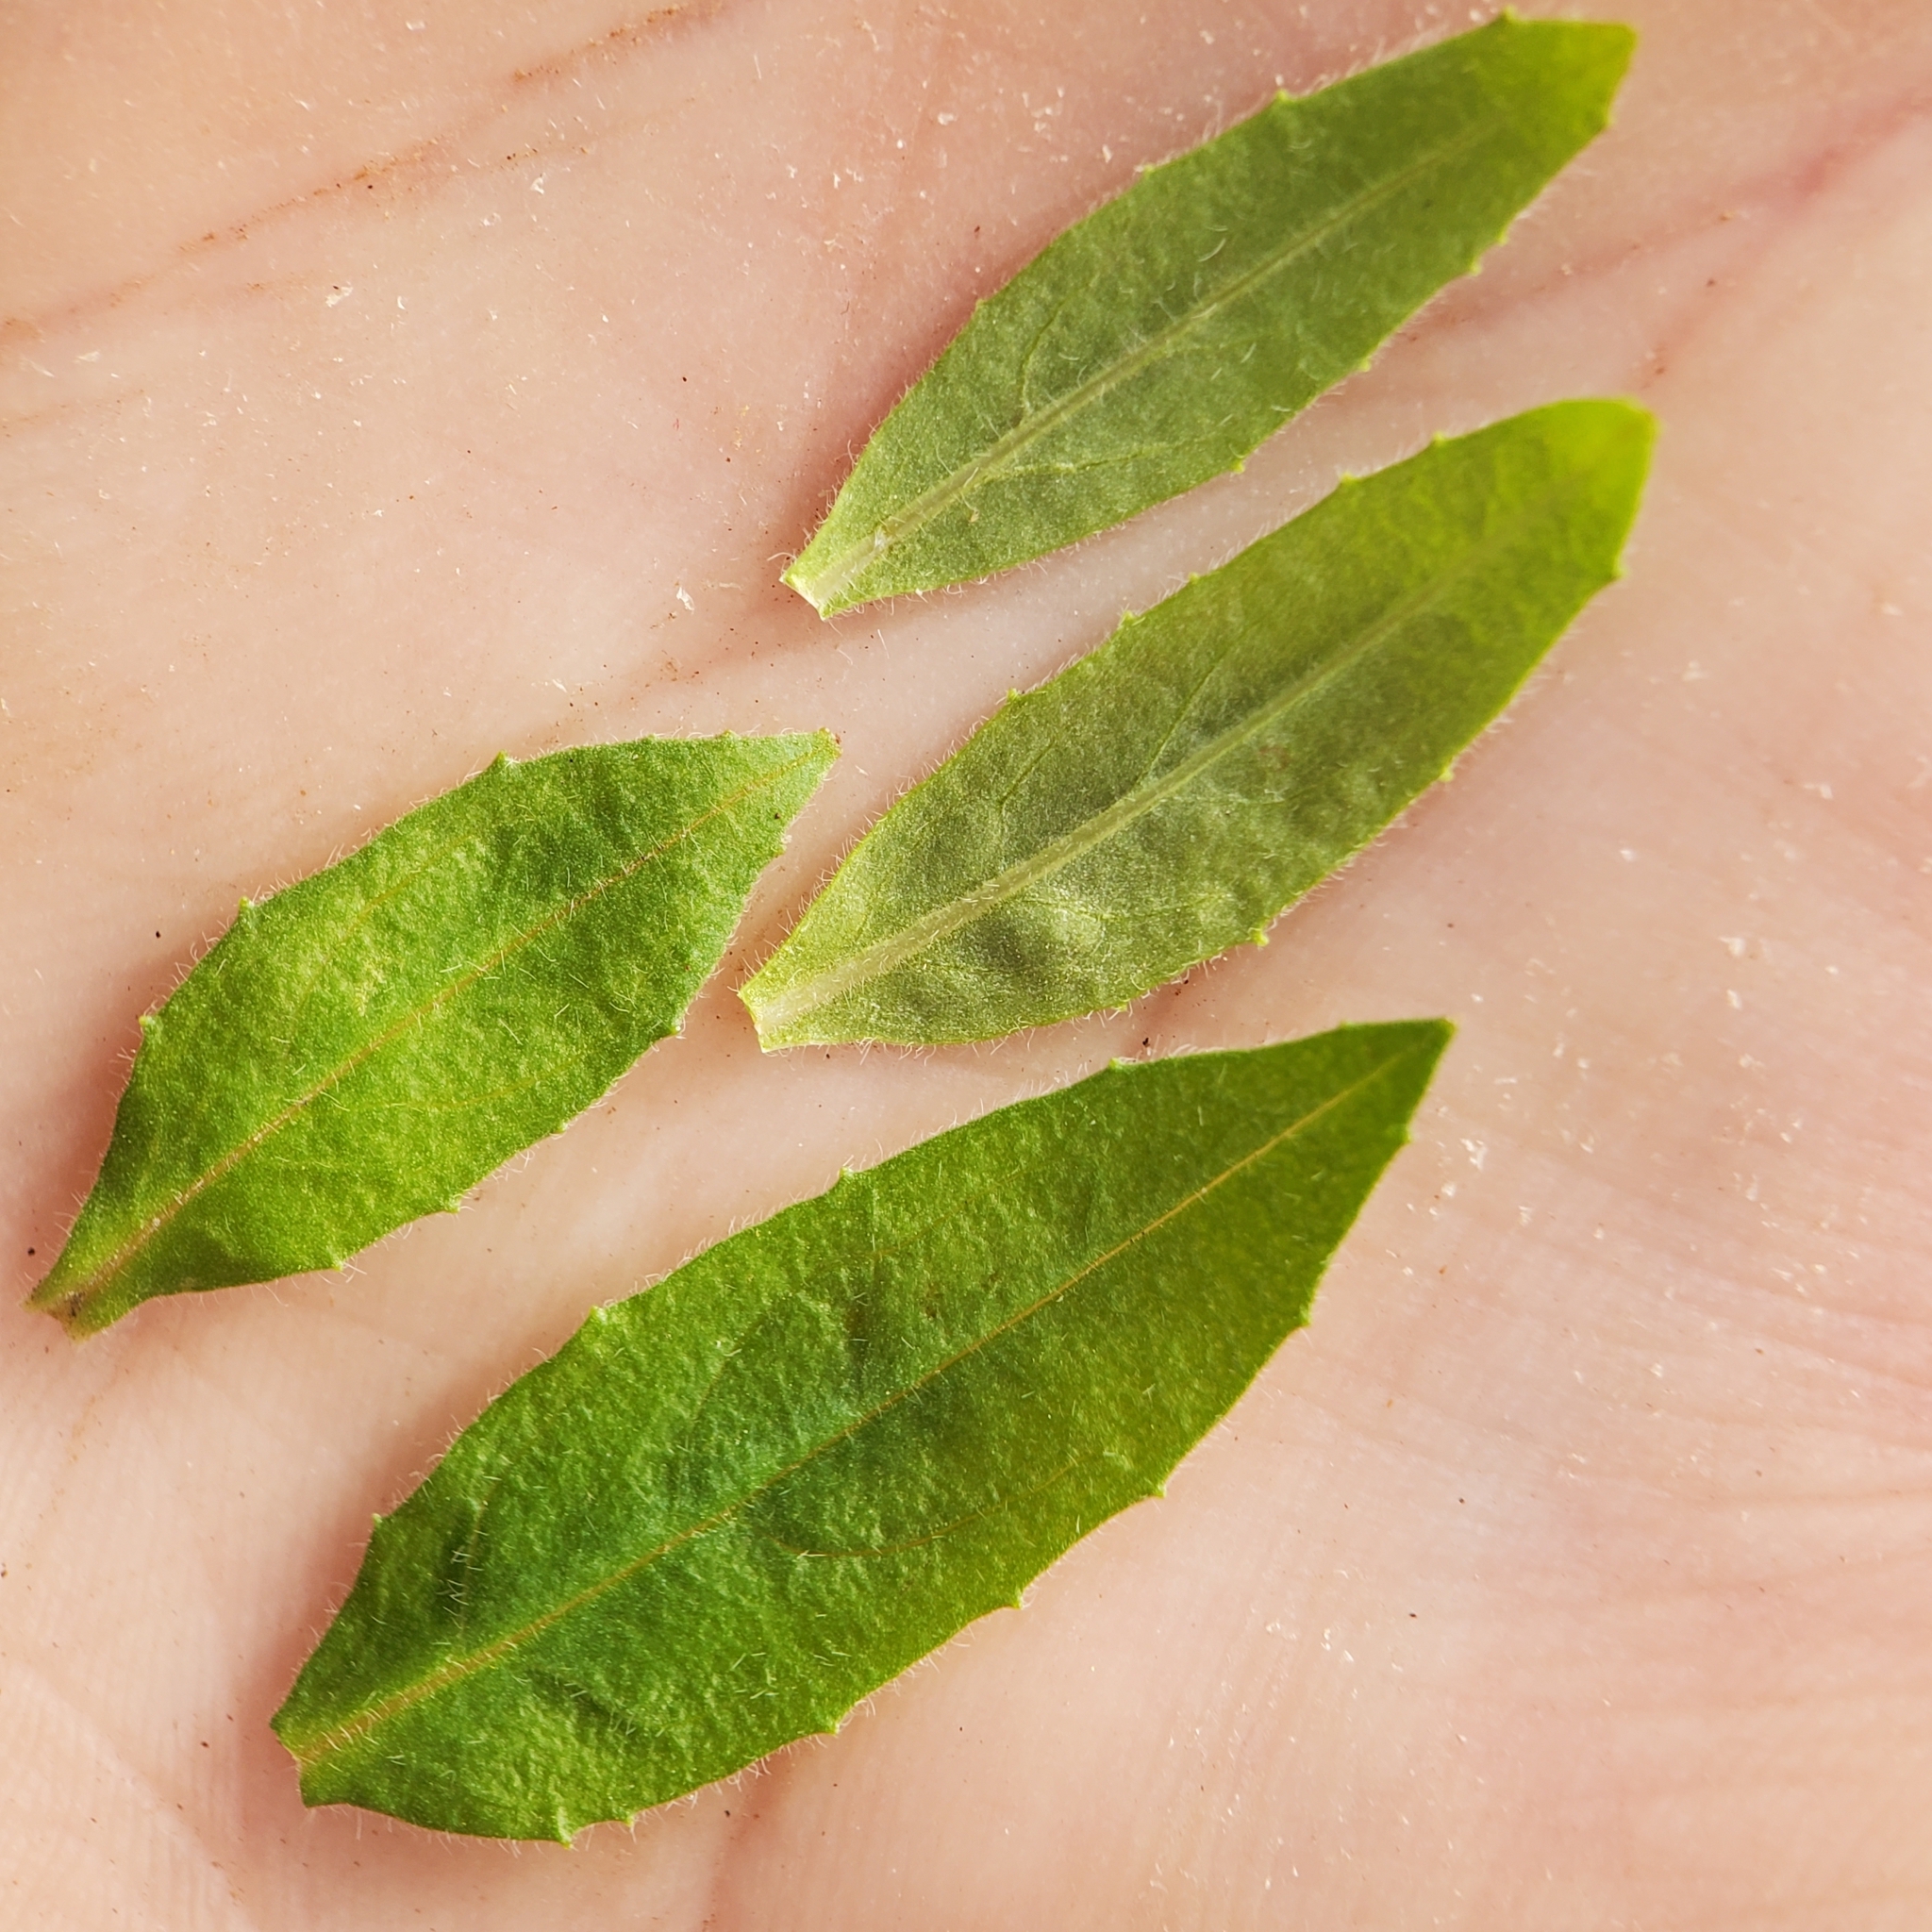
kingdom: Plantae
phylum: Tracheophyta
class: Magnoliopsida
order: Myrtales
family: Onagraceae
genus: Epilobium
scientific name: Epilobium canum
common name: California-fuchsia
